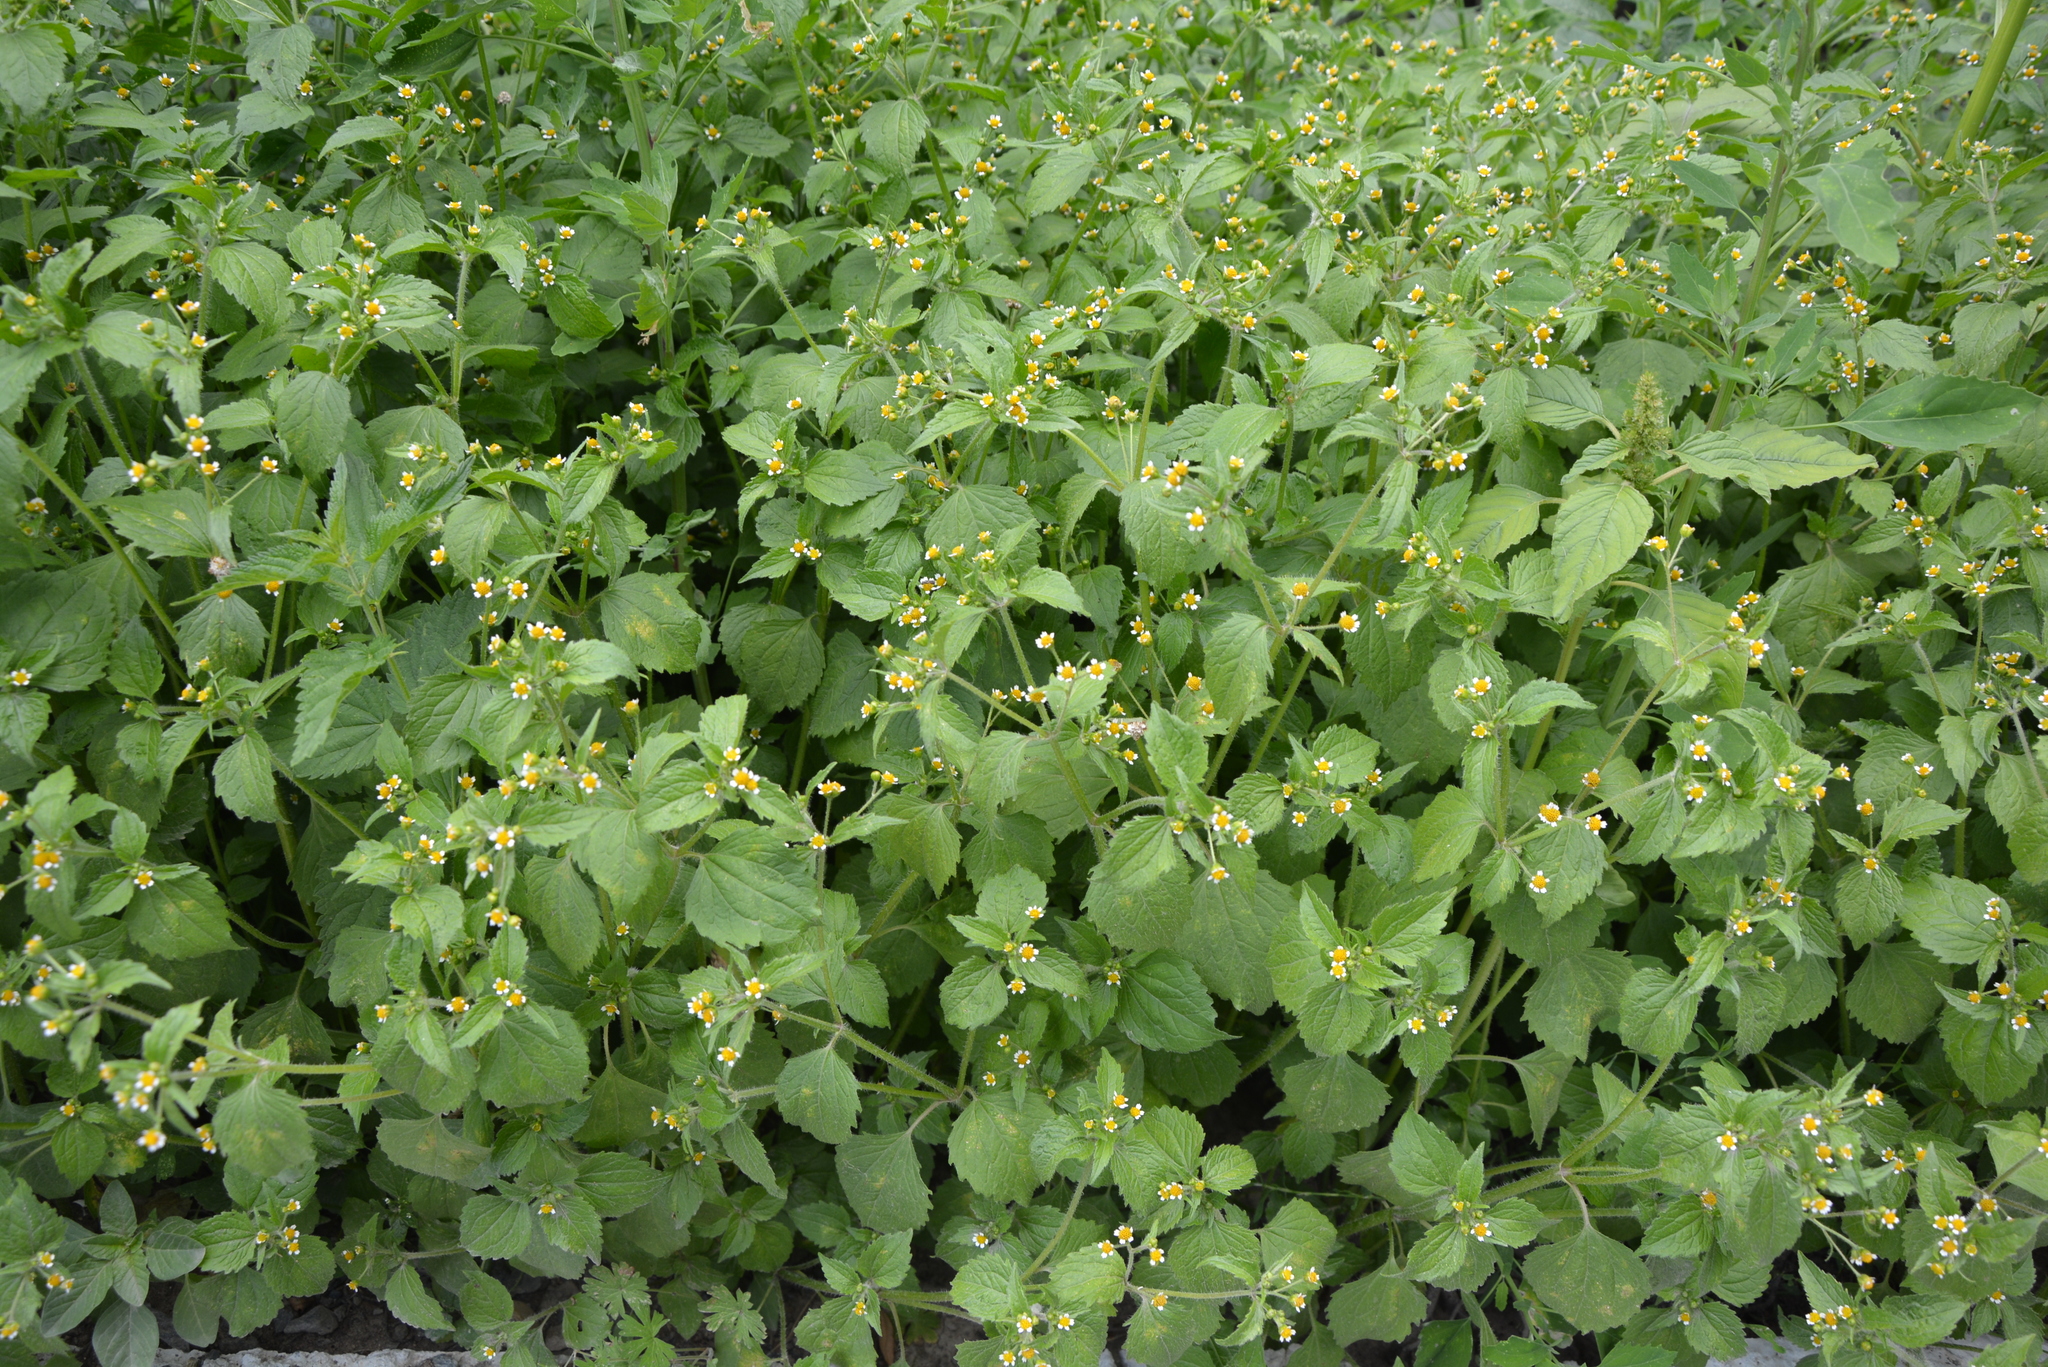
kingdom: Plantae
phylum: Tracheophyta
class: Magnoliopsida
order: Asterales
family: Asteraceae
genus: Galinsoga
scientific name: Galinsoga quadriradiata
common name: Shaggy soldier
